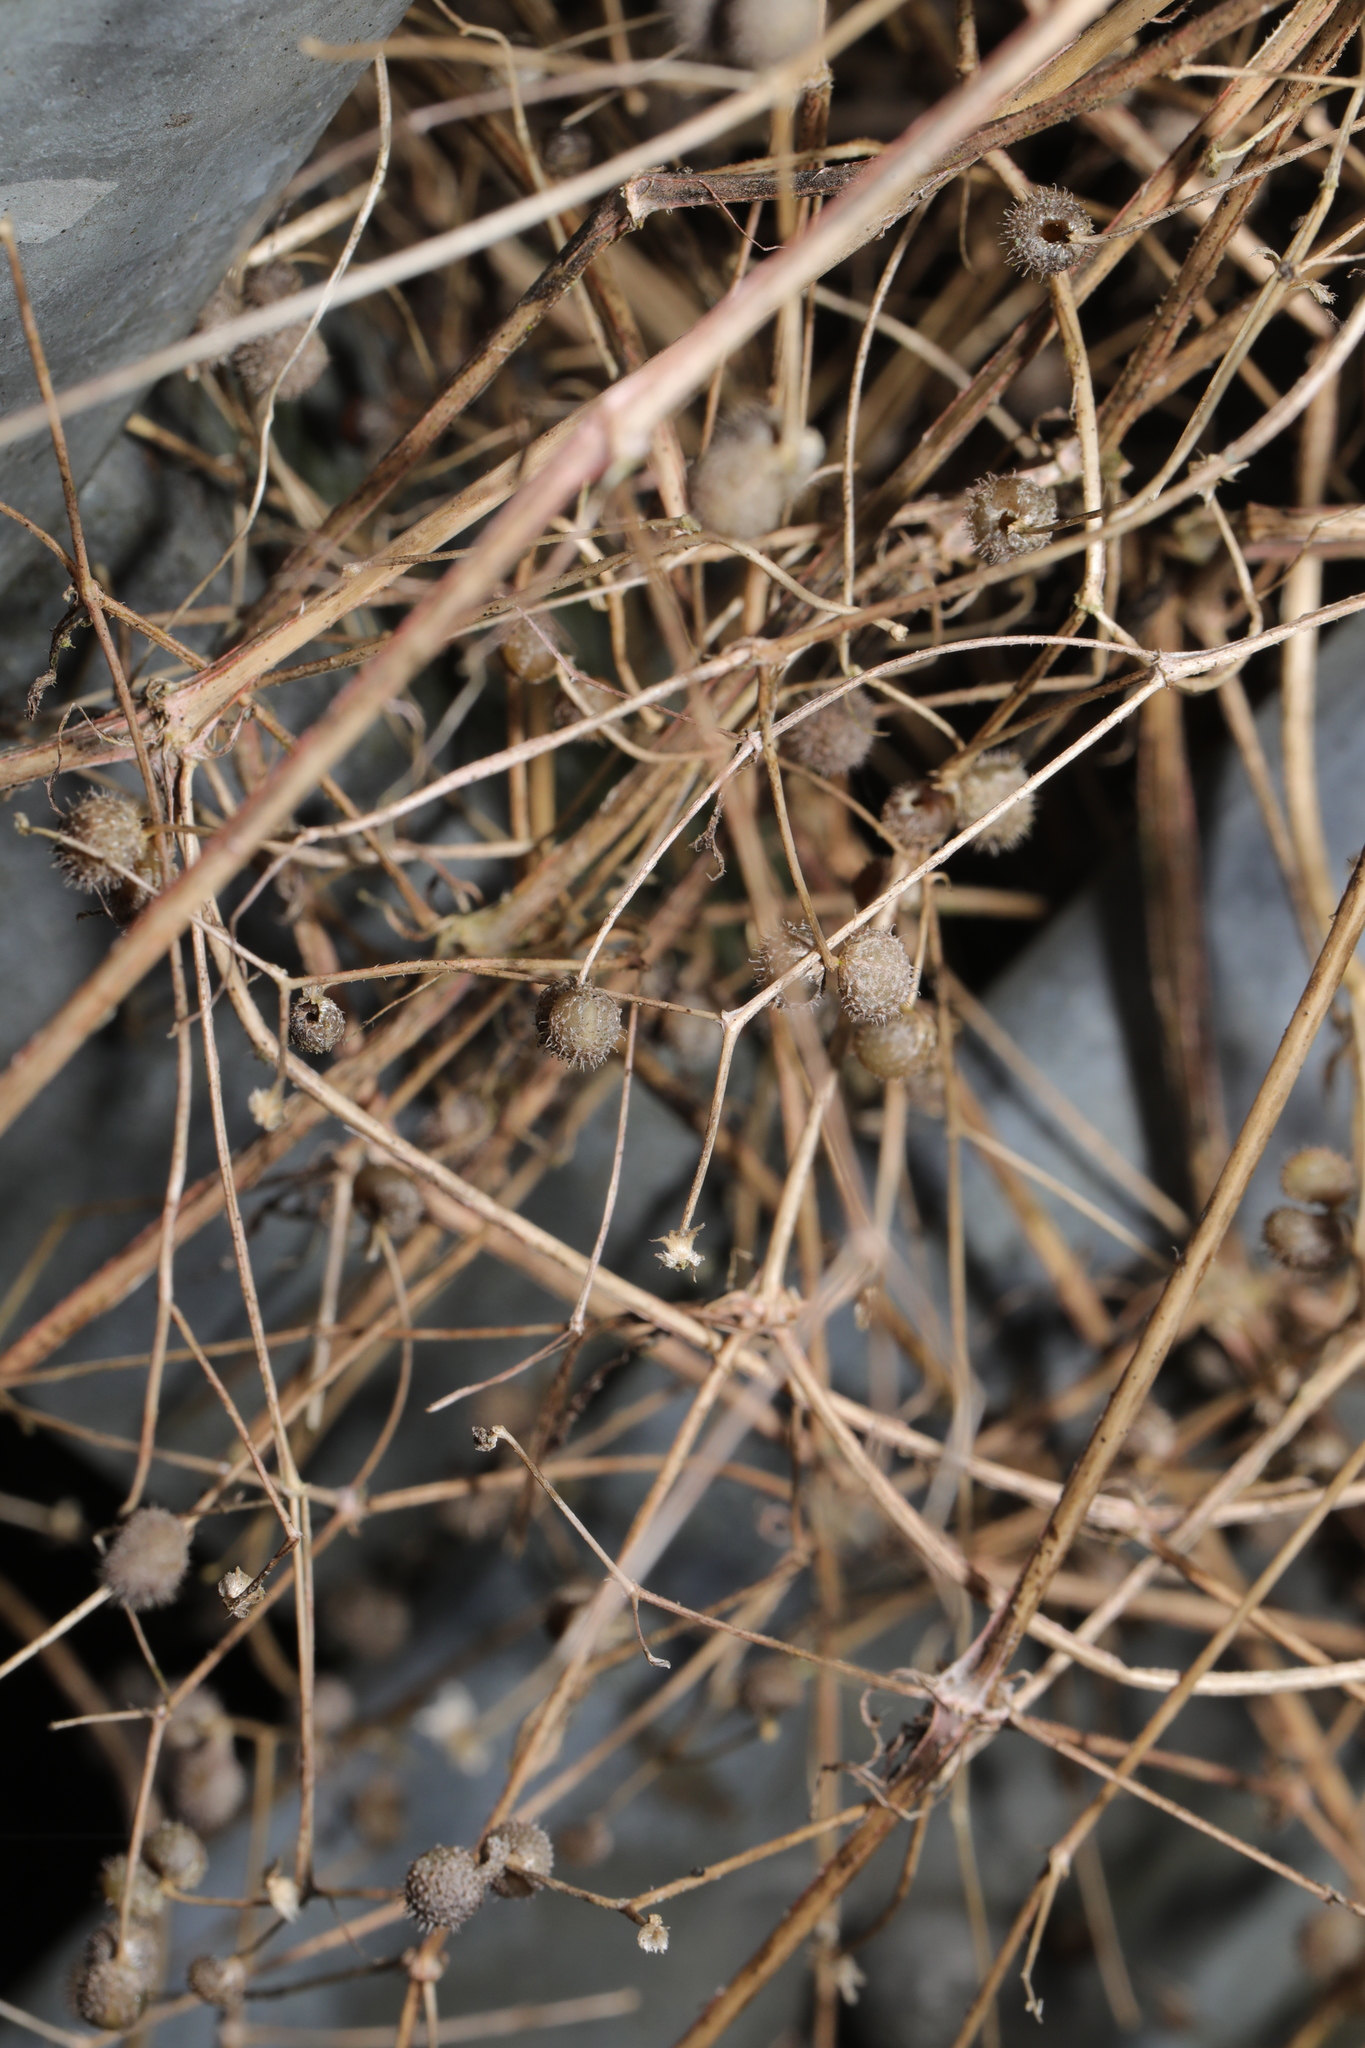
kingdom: Plantae
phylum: Tracheophyta
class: Magnoliopsida
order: Gentianales
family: Rubiaceae
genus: Galium
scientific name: Galium aparine
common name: Cleavers
